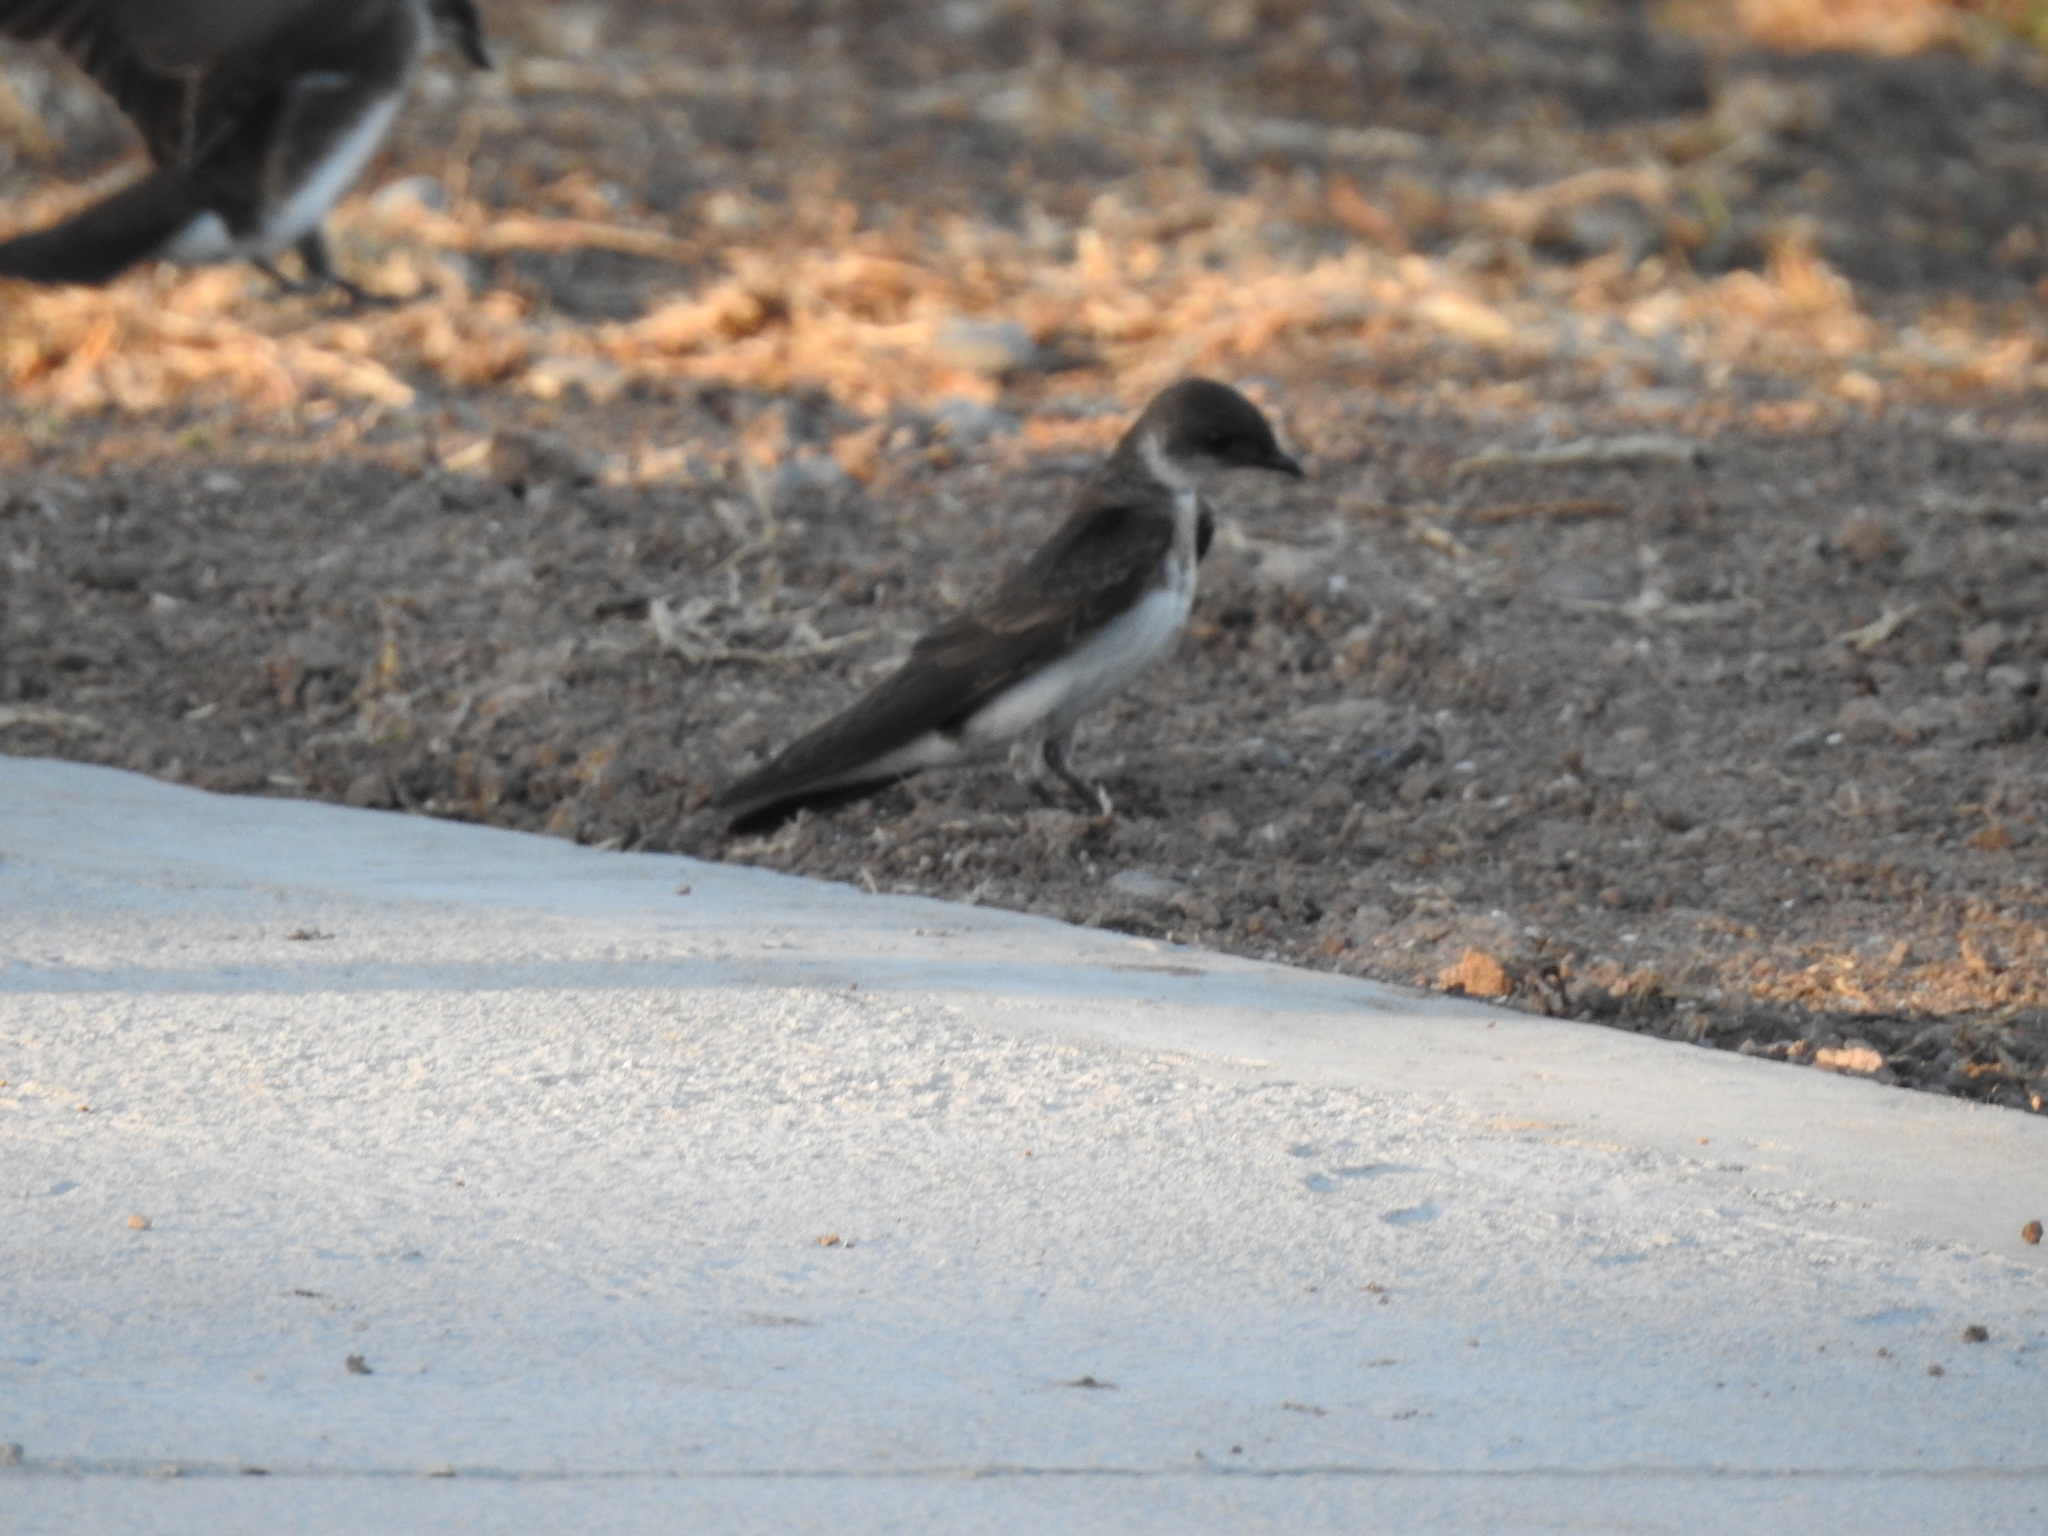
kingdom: Animalia
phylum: Chordata
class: Aves
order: Passeriformes
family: Hirundinidae
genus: Progne
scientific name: Progne tapera
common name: Brown-chested martin
